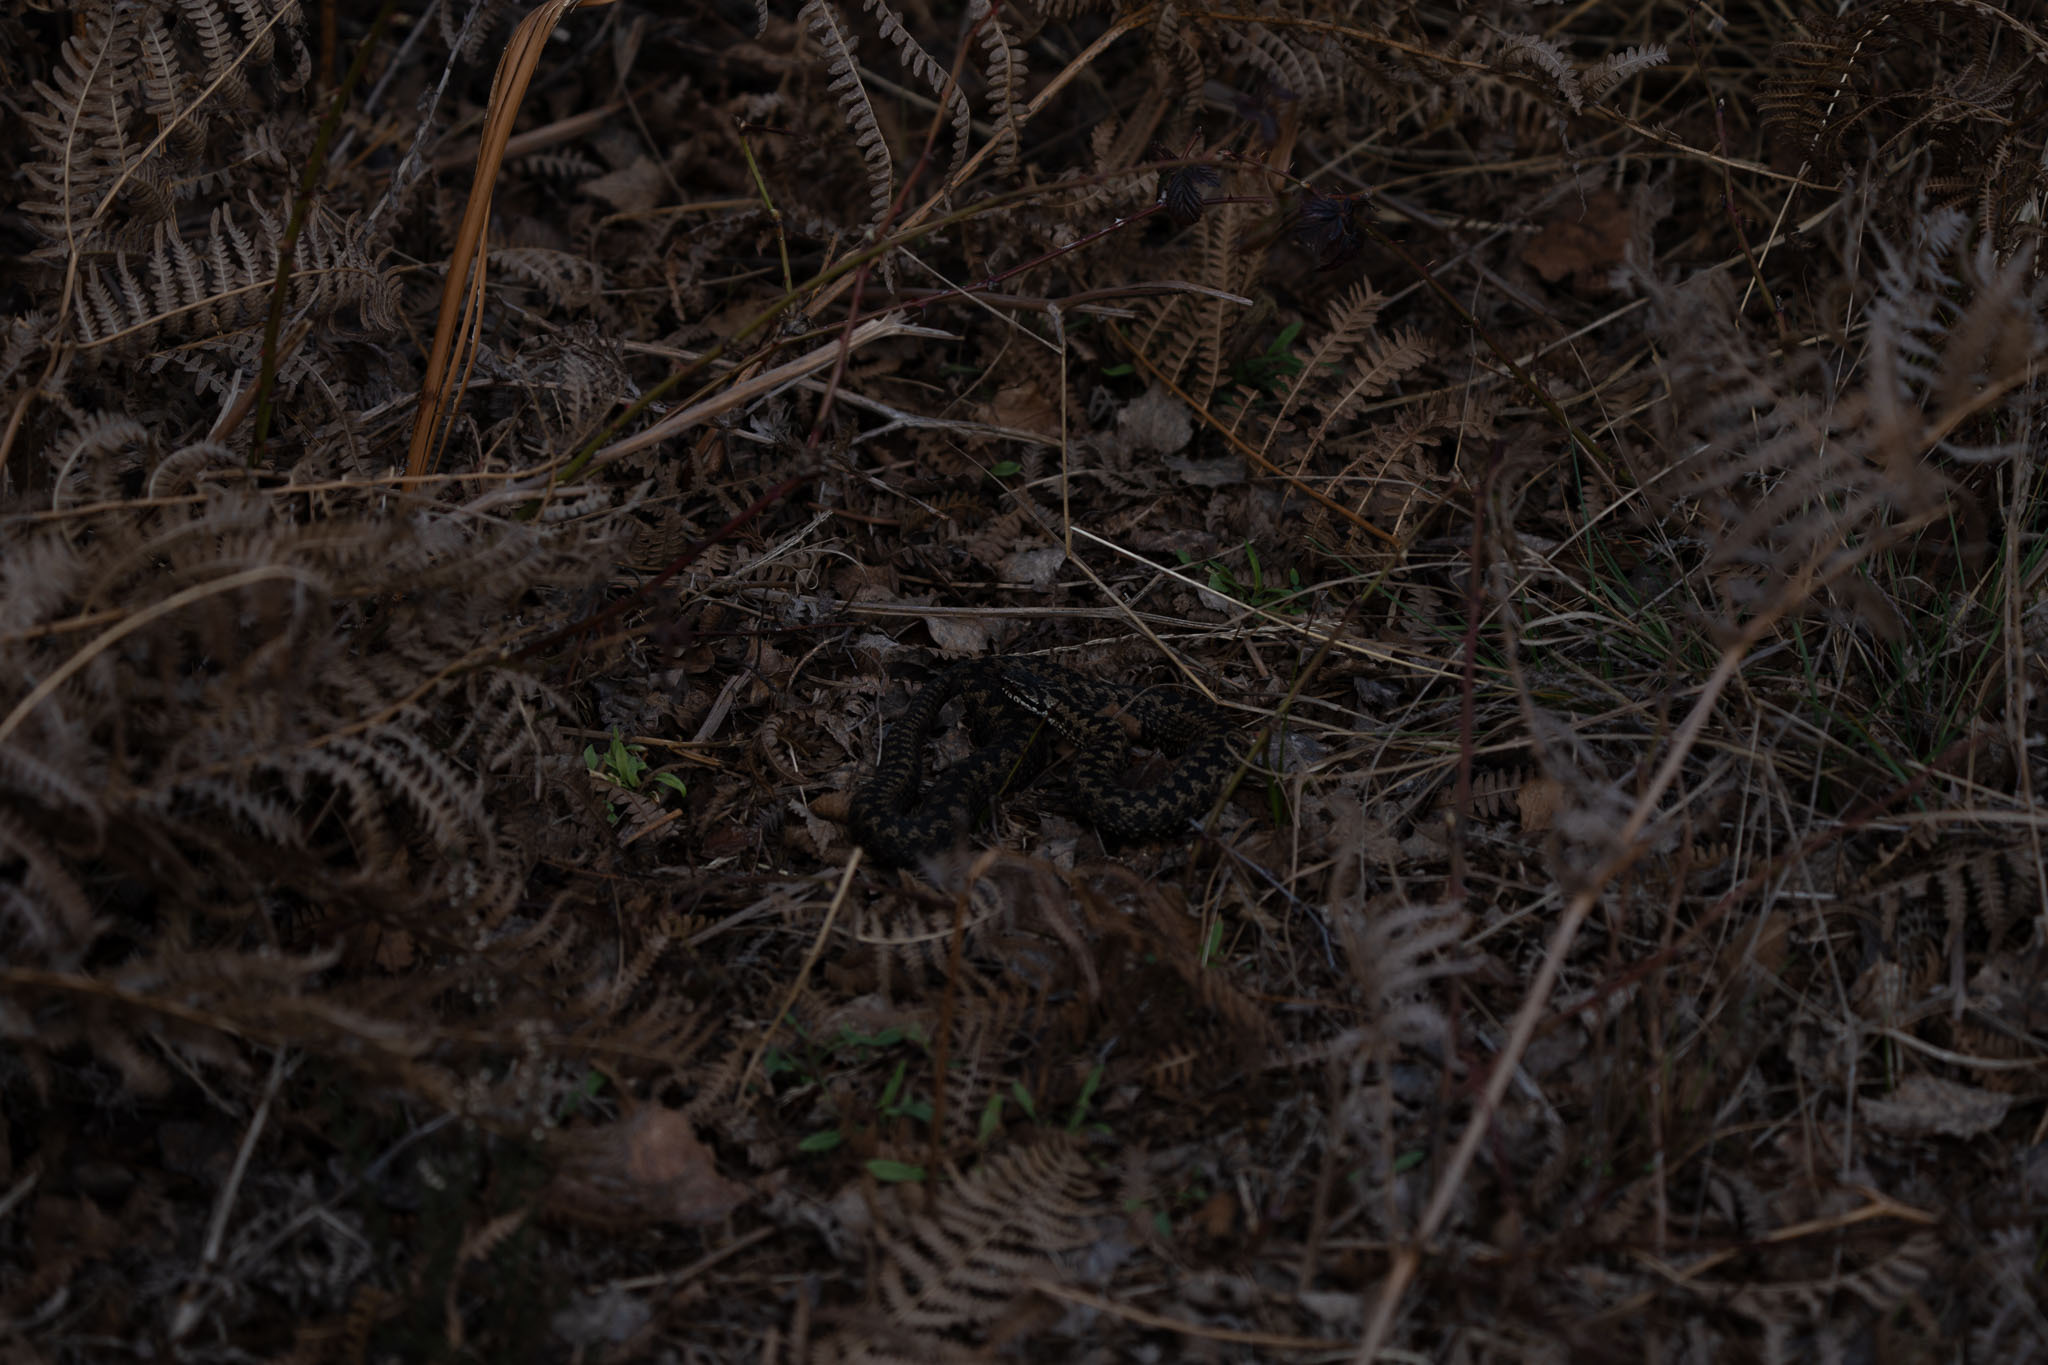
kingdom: Animalia
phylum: Chordata
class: Squamata
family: Viperidae
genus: Vipera
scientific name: Vipera berus
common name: Adder
